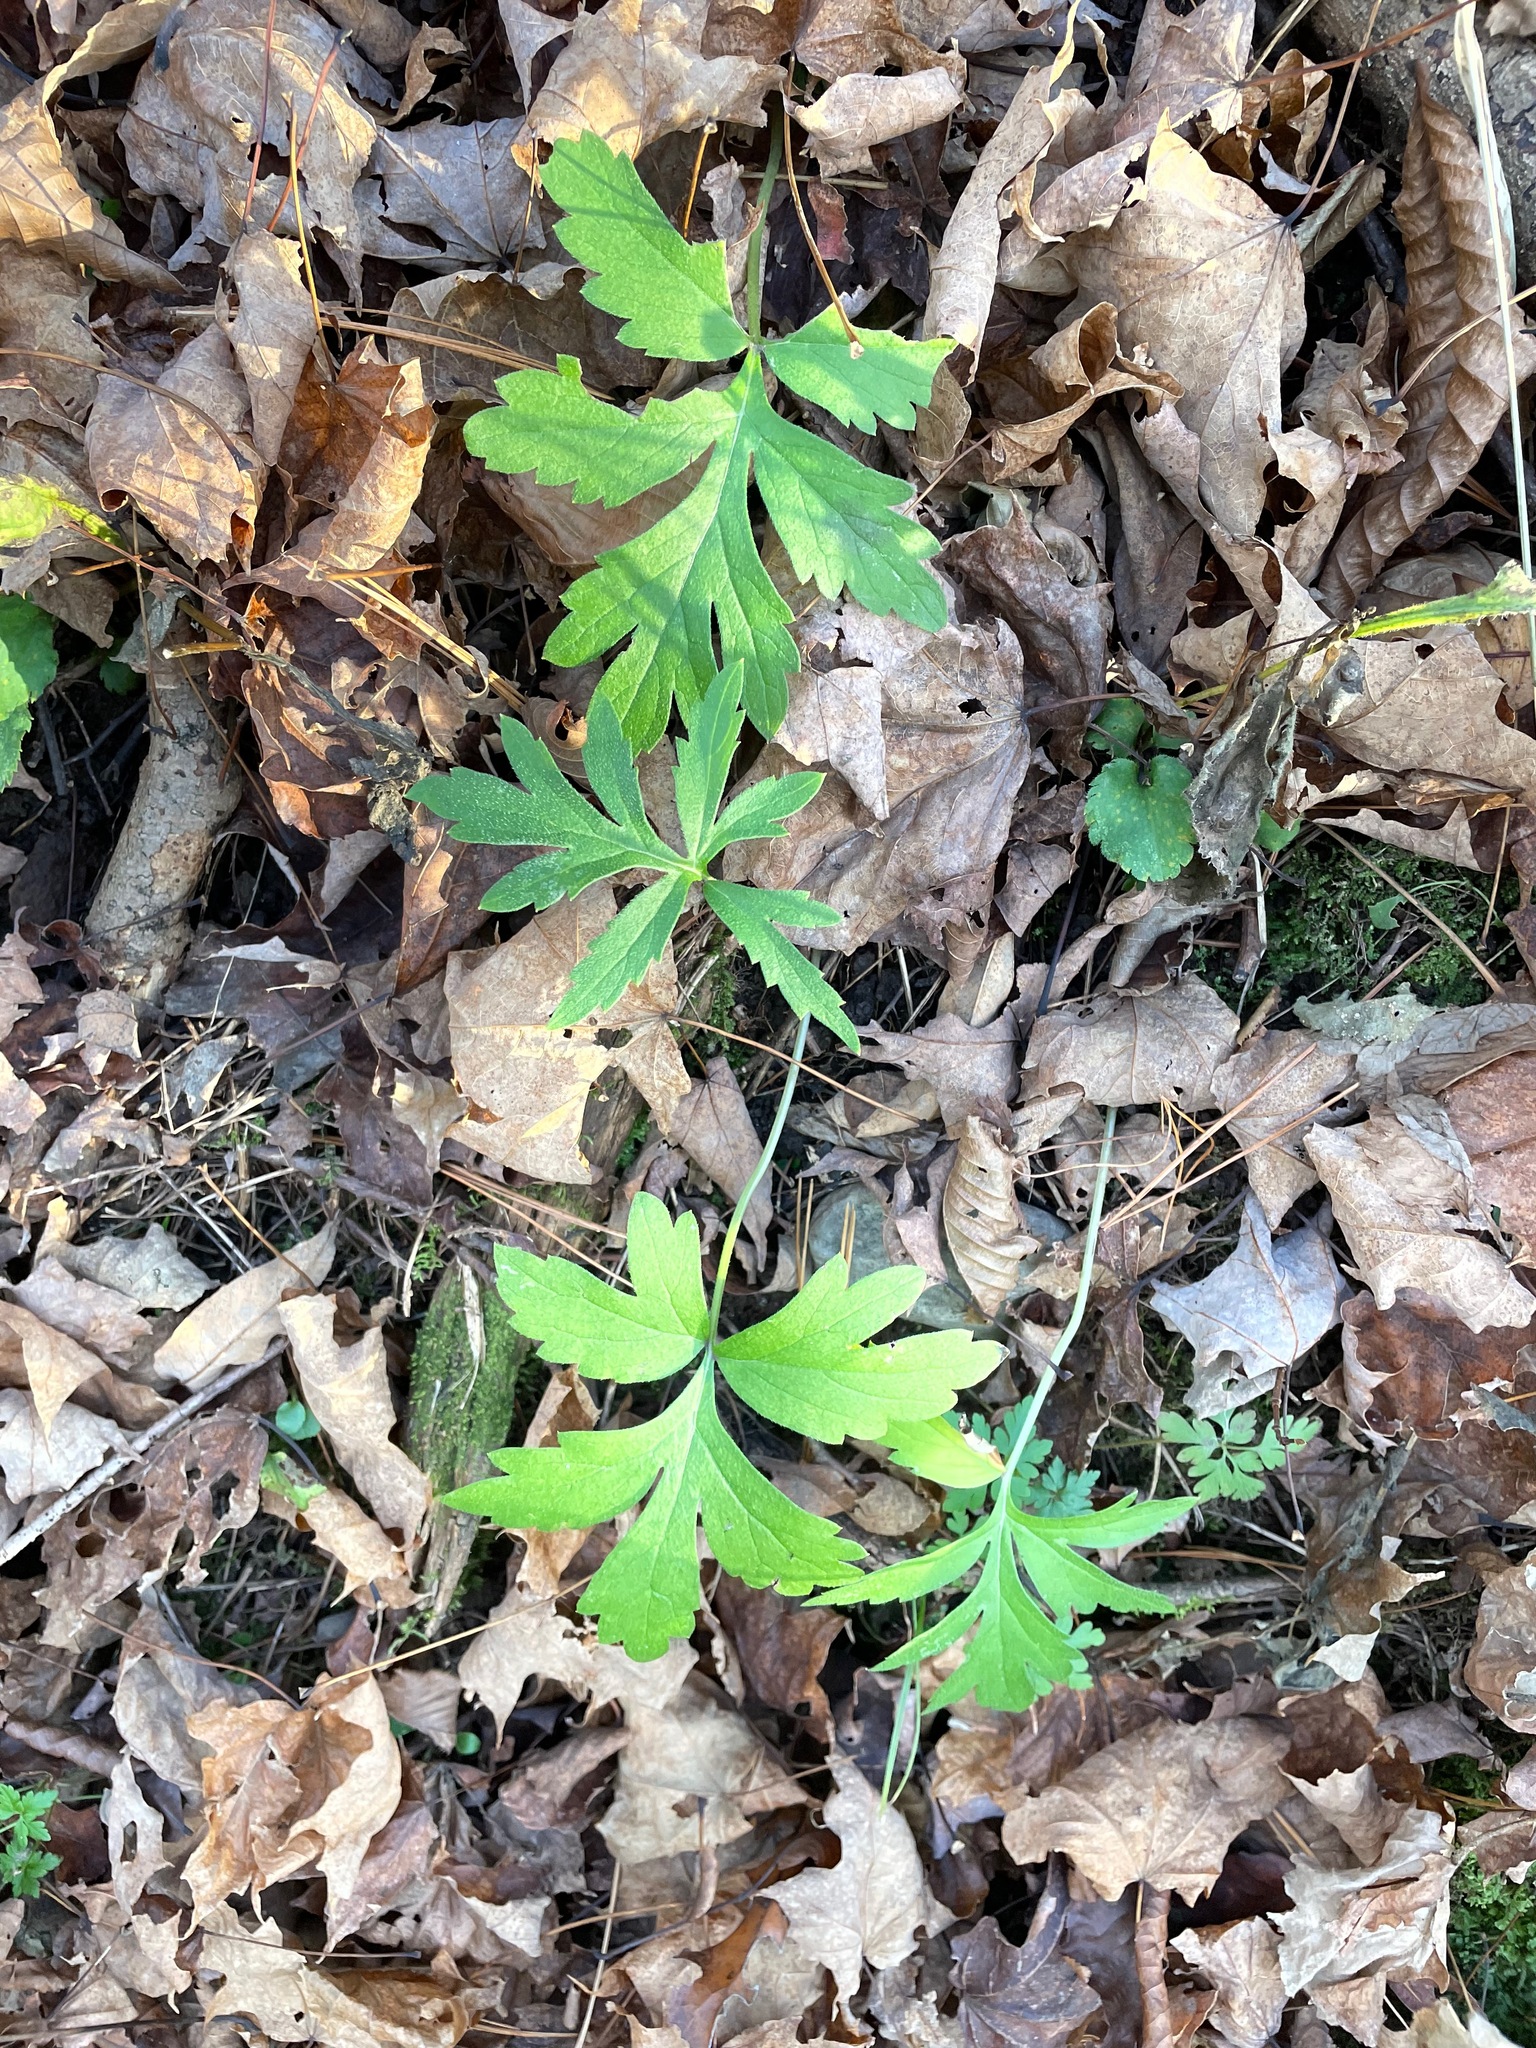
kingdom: Plantae
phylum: Tracheophyta
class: Magnoliopsida
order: Boraginales
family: Hydrophyllaceae
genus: Hydrophyllum
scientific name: Hydrophyllum virginianum
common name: Virginia waterleaf
